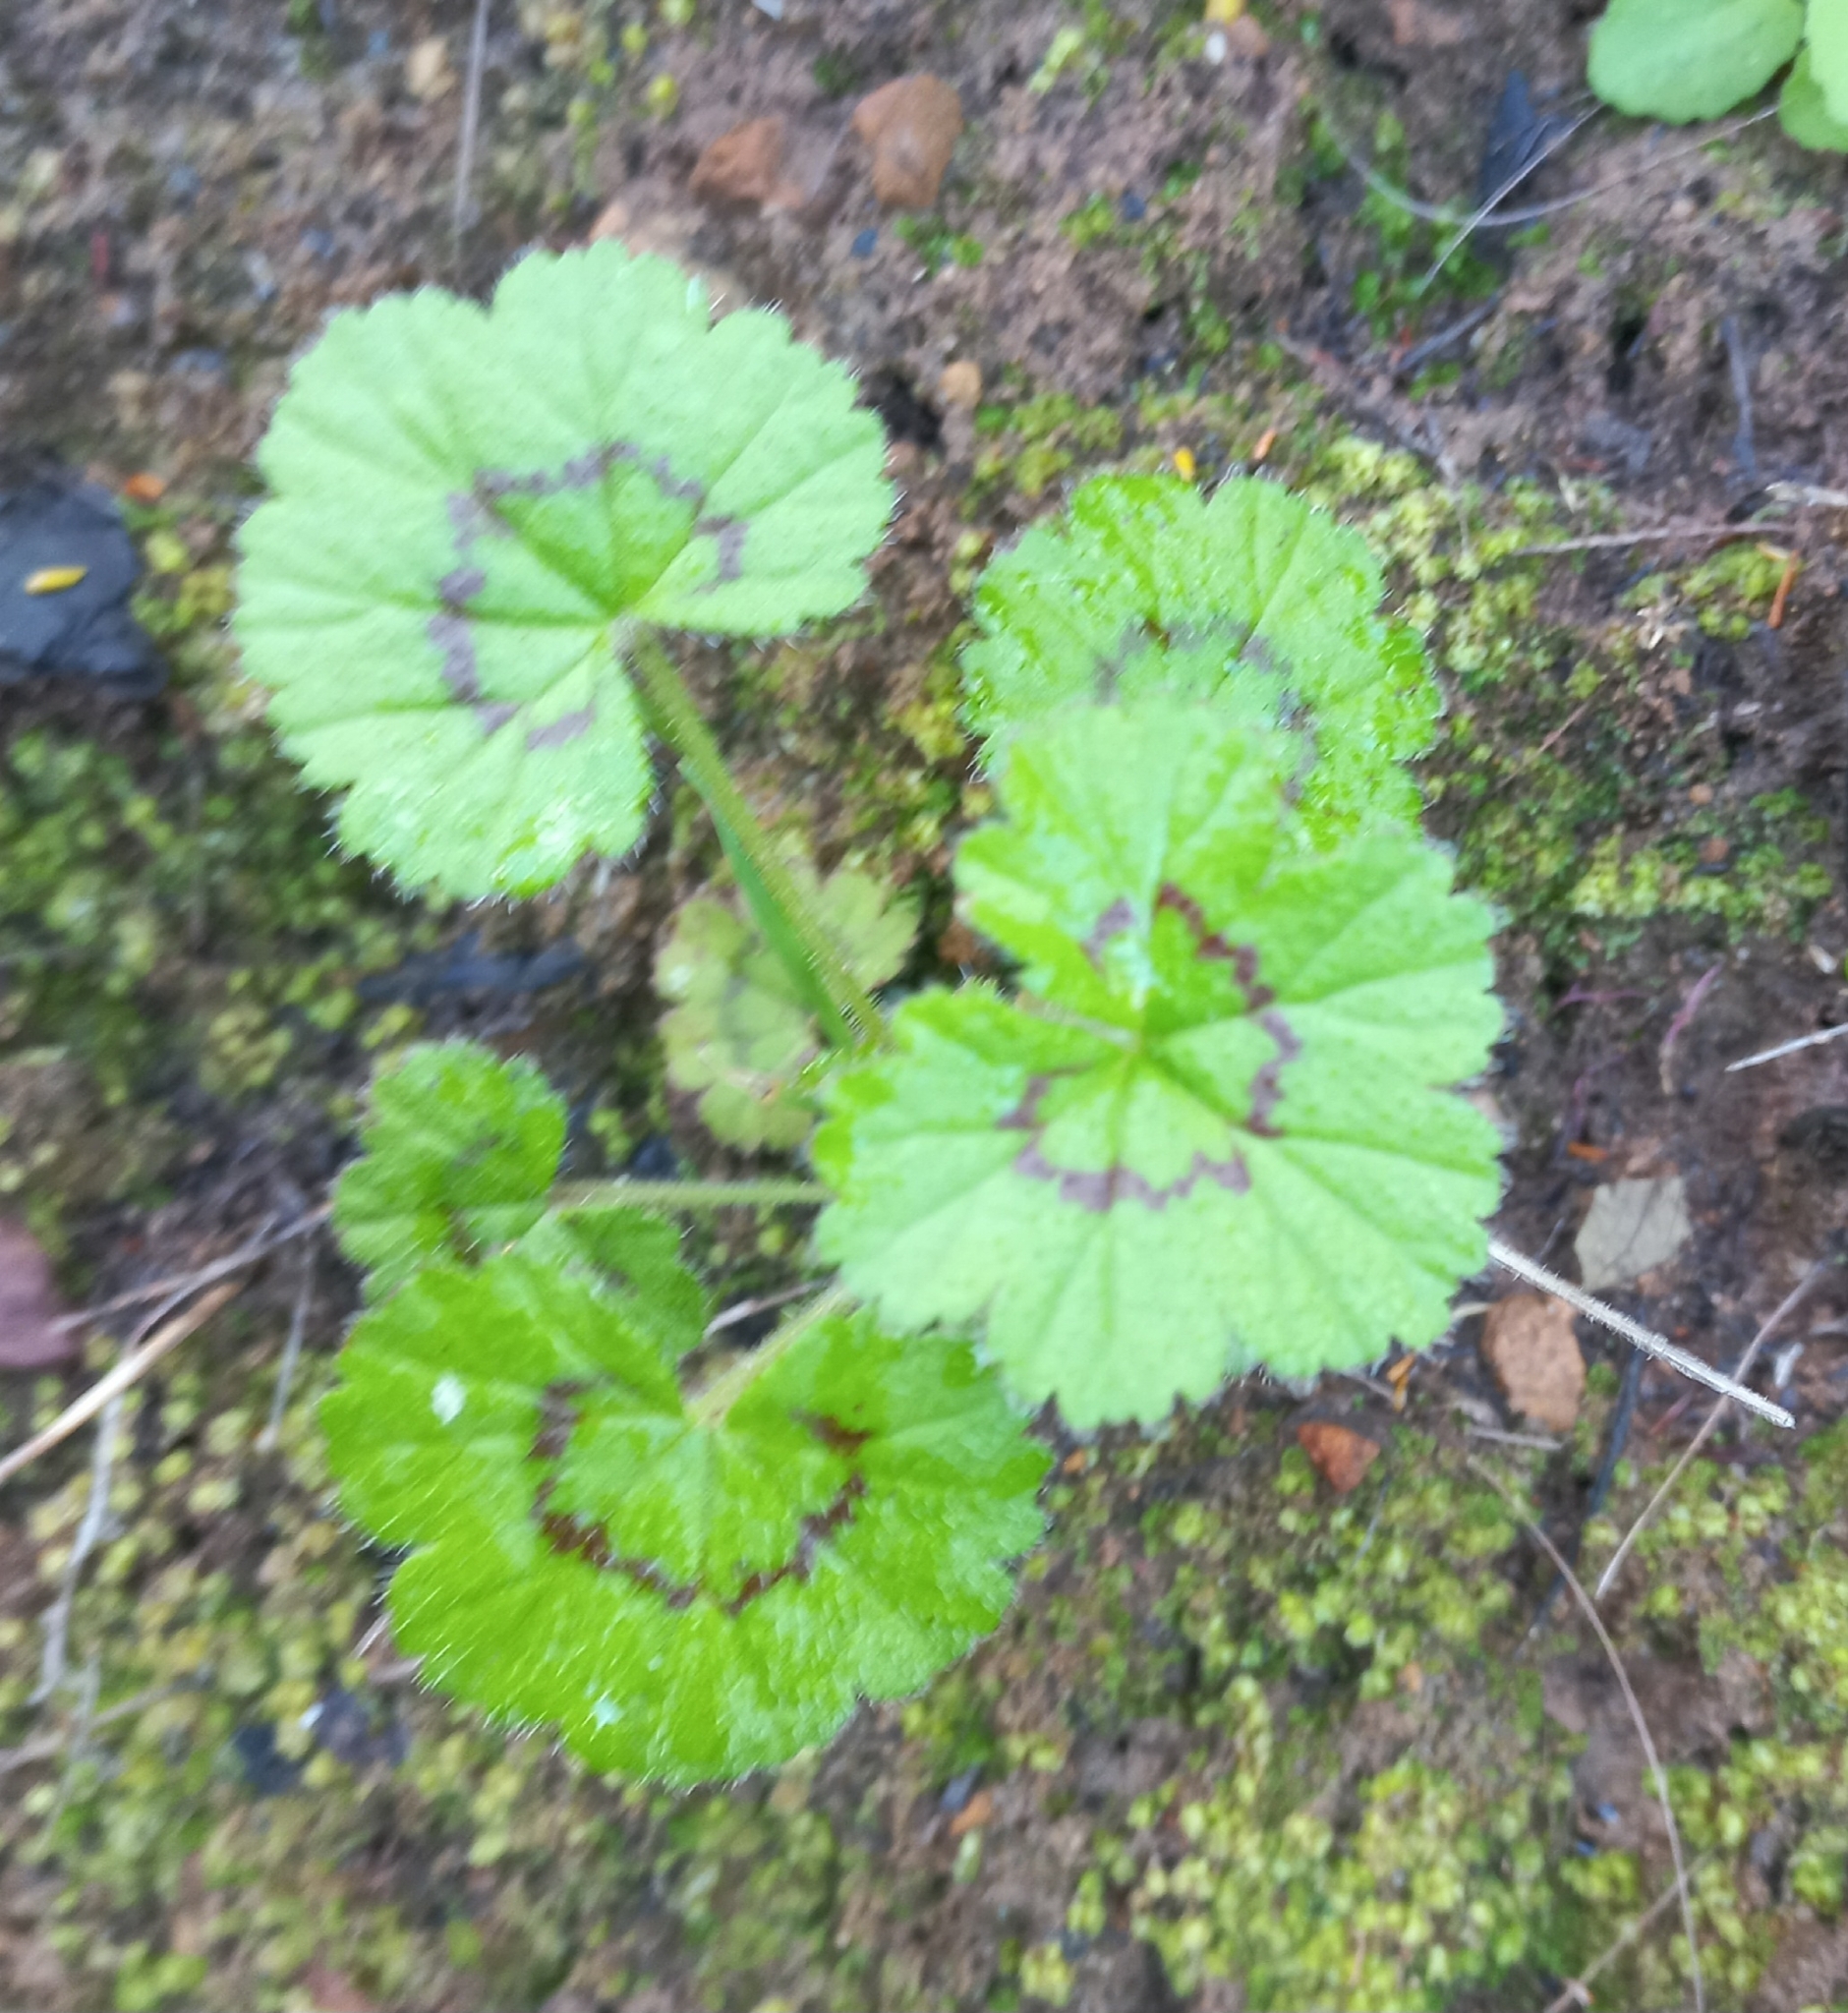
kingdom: Plantae
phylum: Tracheophyta
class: Magnoliopsida
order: Geraniales
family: Geraniaceae
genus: Pelargonium
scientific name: Pelargonium elongatum
